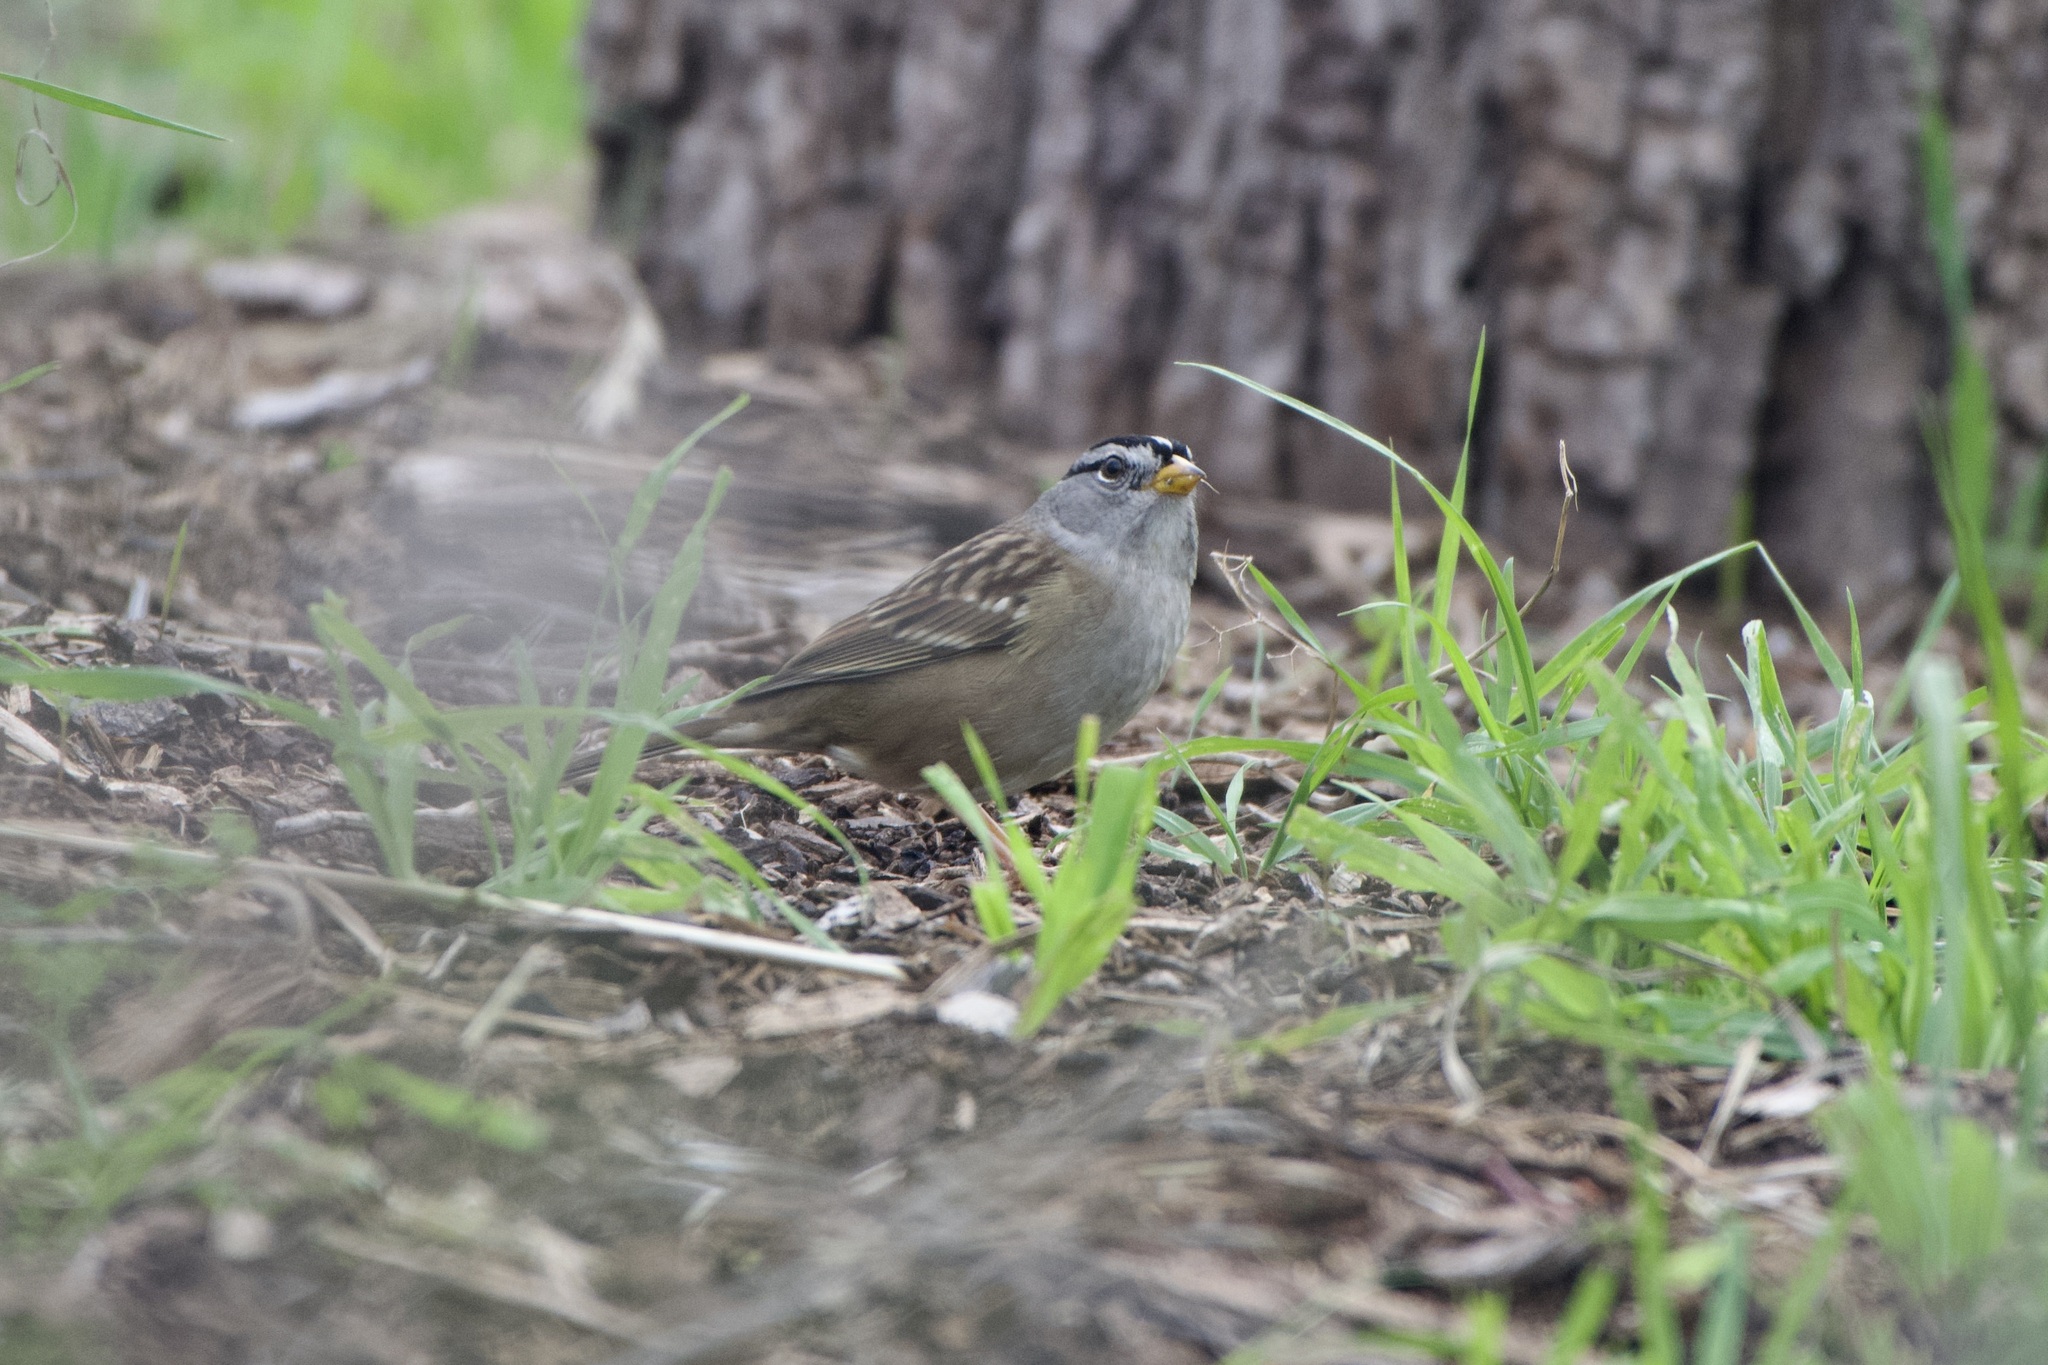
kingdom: Animalia
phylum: Chordata
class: Aves
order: Passeriformes
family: Passerellidae
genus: Zonotrichia
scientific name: Zonotrichia leucophrys
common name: White-crowned sparrow
